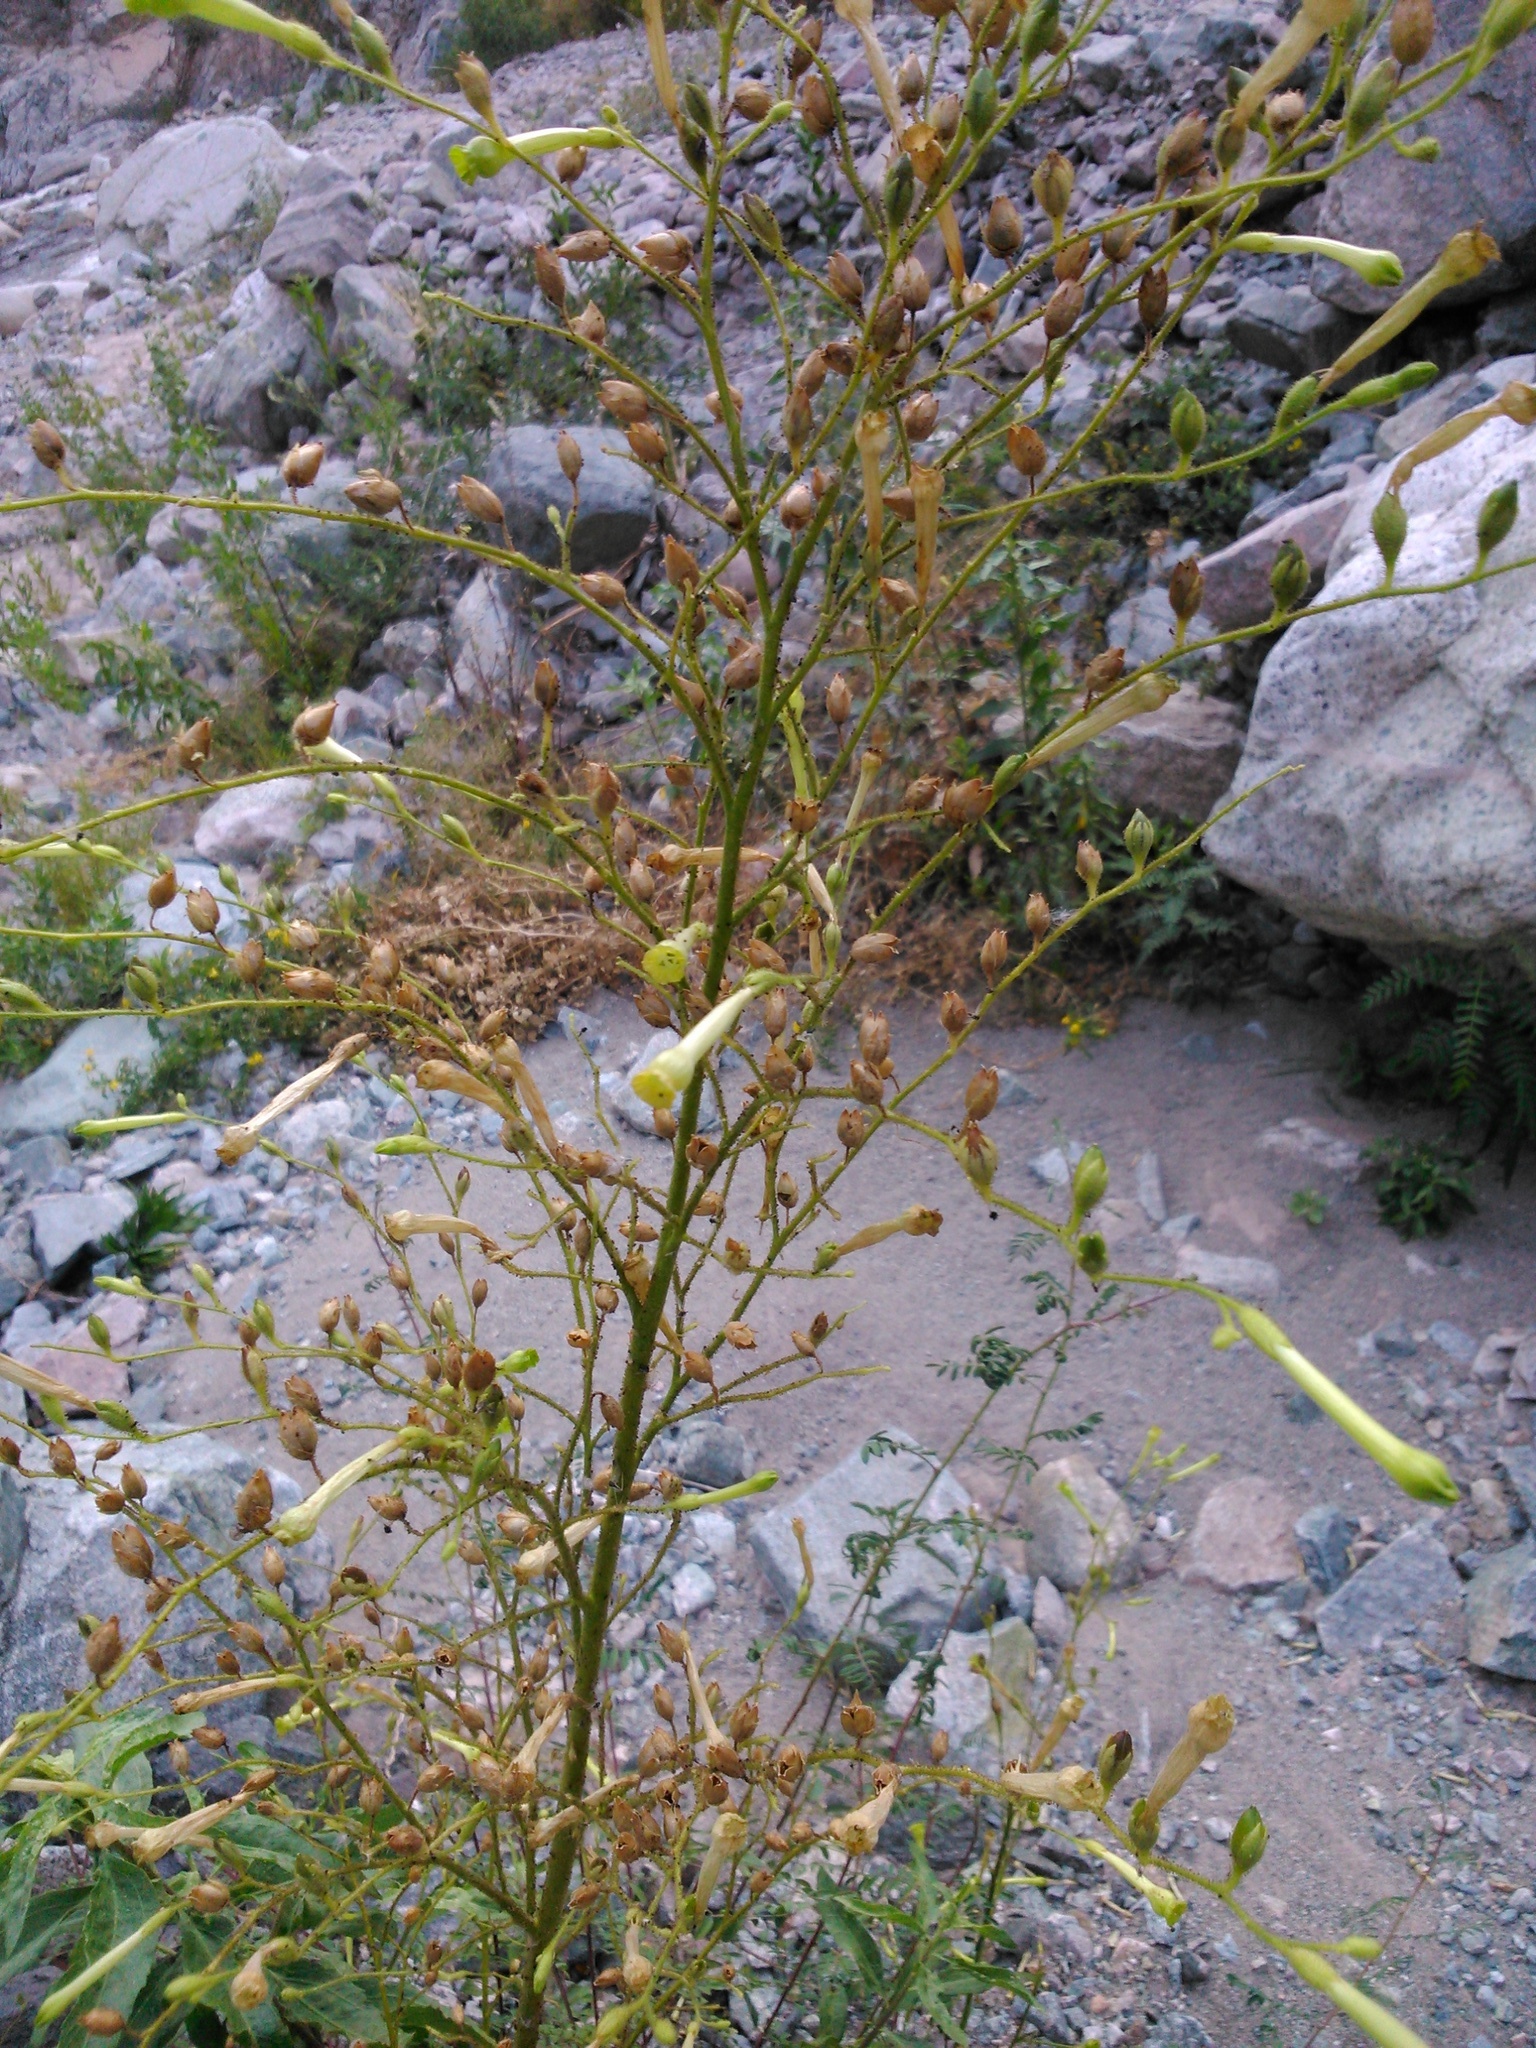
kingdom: Plantae
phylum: Tracheophyta
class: Magnoliopsida
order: Solanales
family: Solanaceae
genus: Nicotiana
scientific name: Nicotiana paniculata
